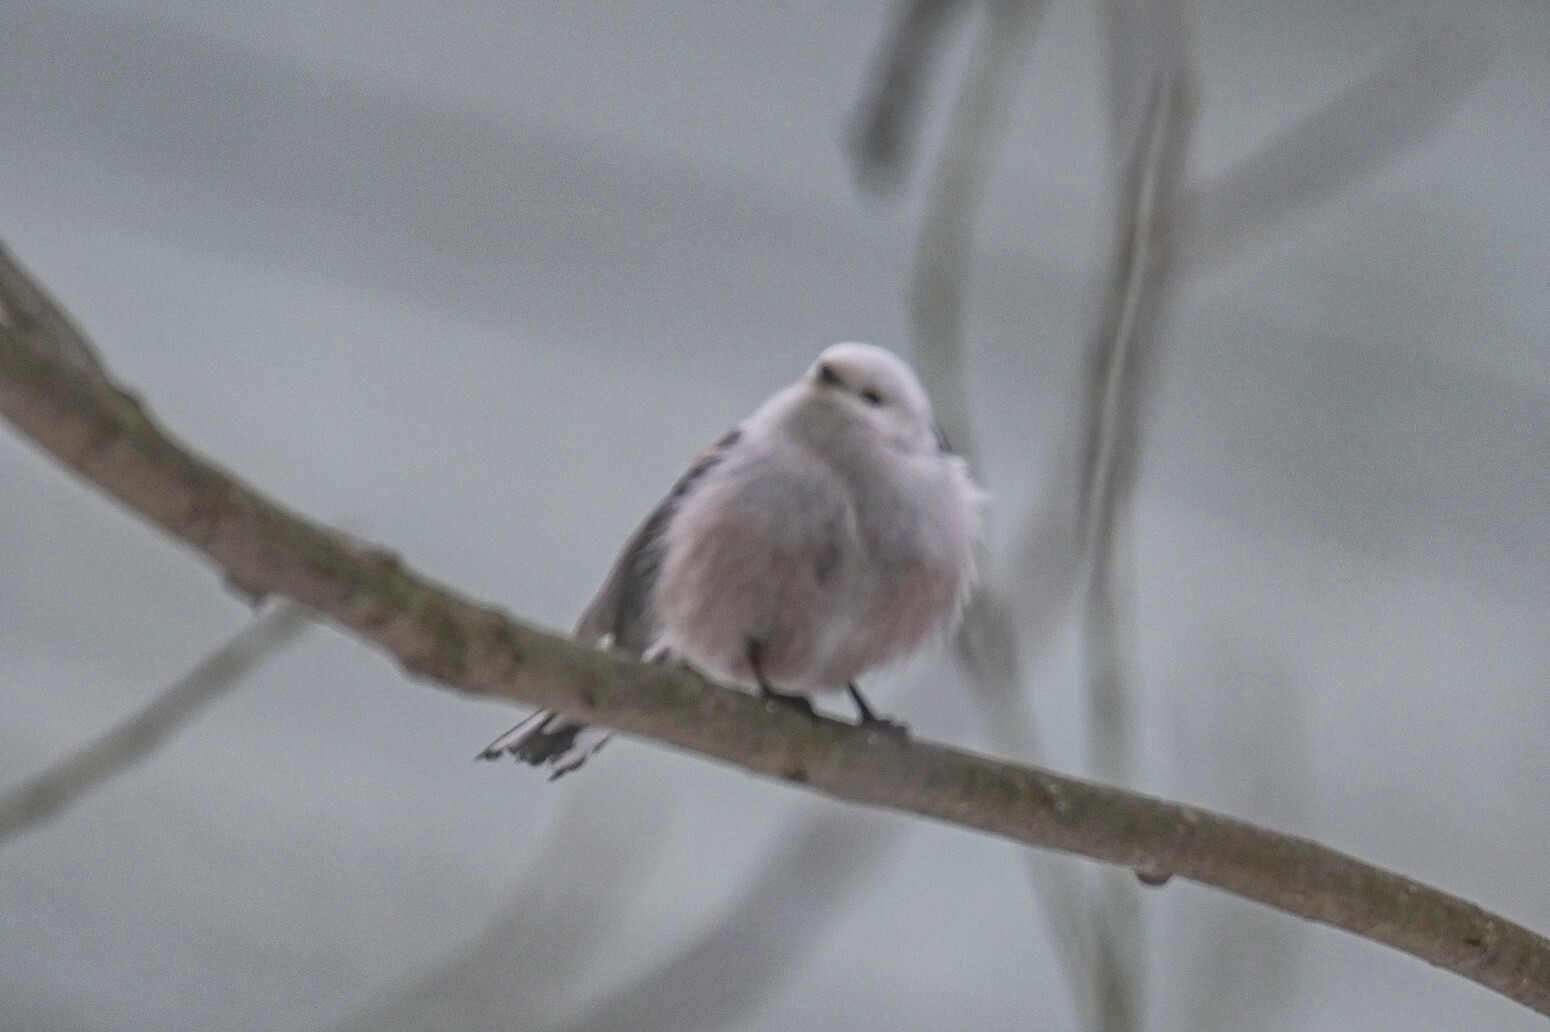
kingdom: Animalia
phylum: Chordata
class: Aves
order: Passeriformes
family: Aegithalidae
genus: Aegithalos
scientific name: Aegithalos caudatus
